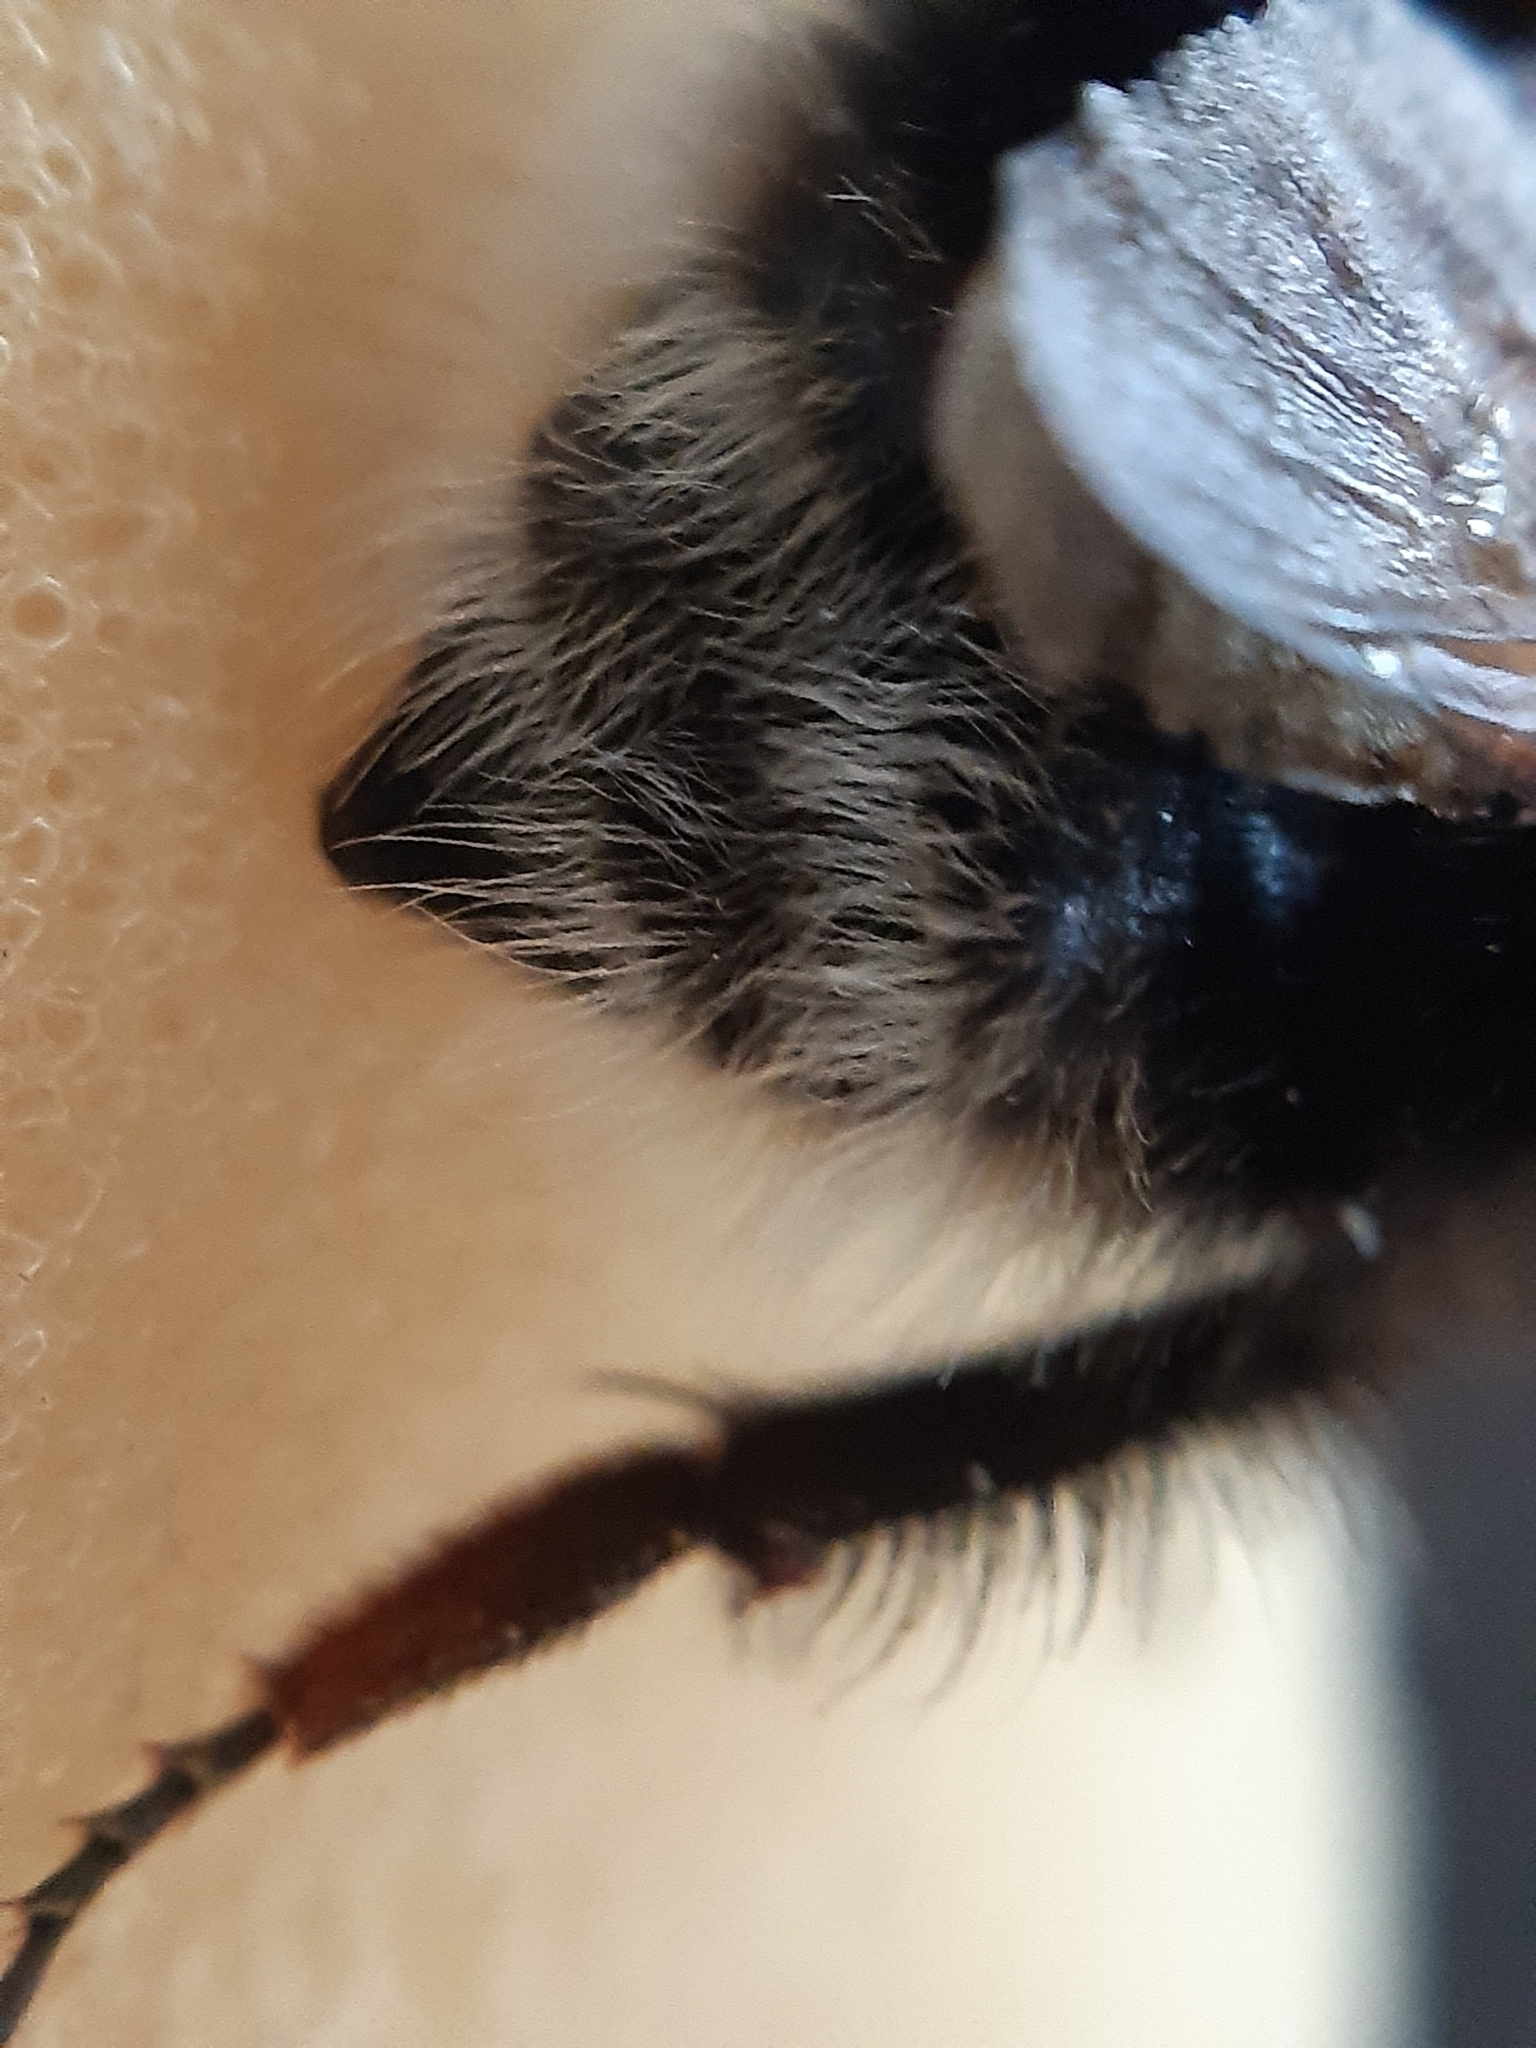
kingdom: Animalia
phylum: Arthropoda
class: Insecta
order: Hymenoptera
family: Apidae
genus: Bombus
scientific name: Bombus hypnorum
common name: New garden bumblebee
